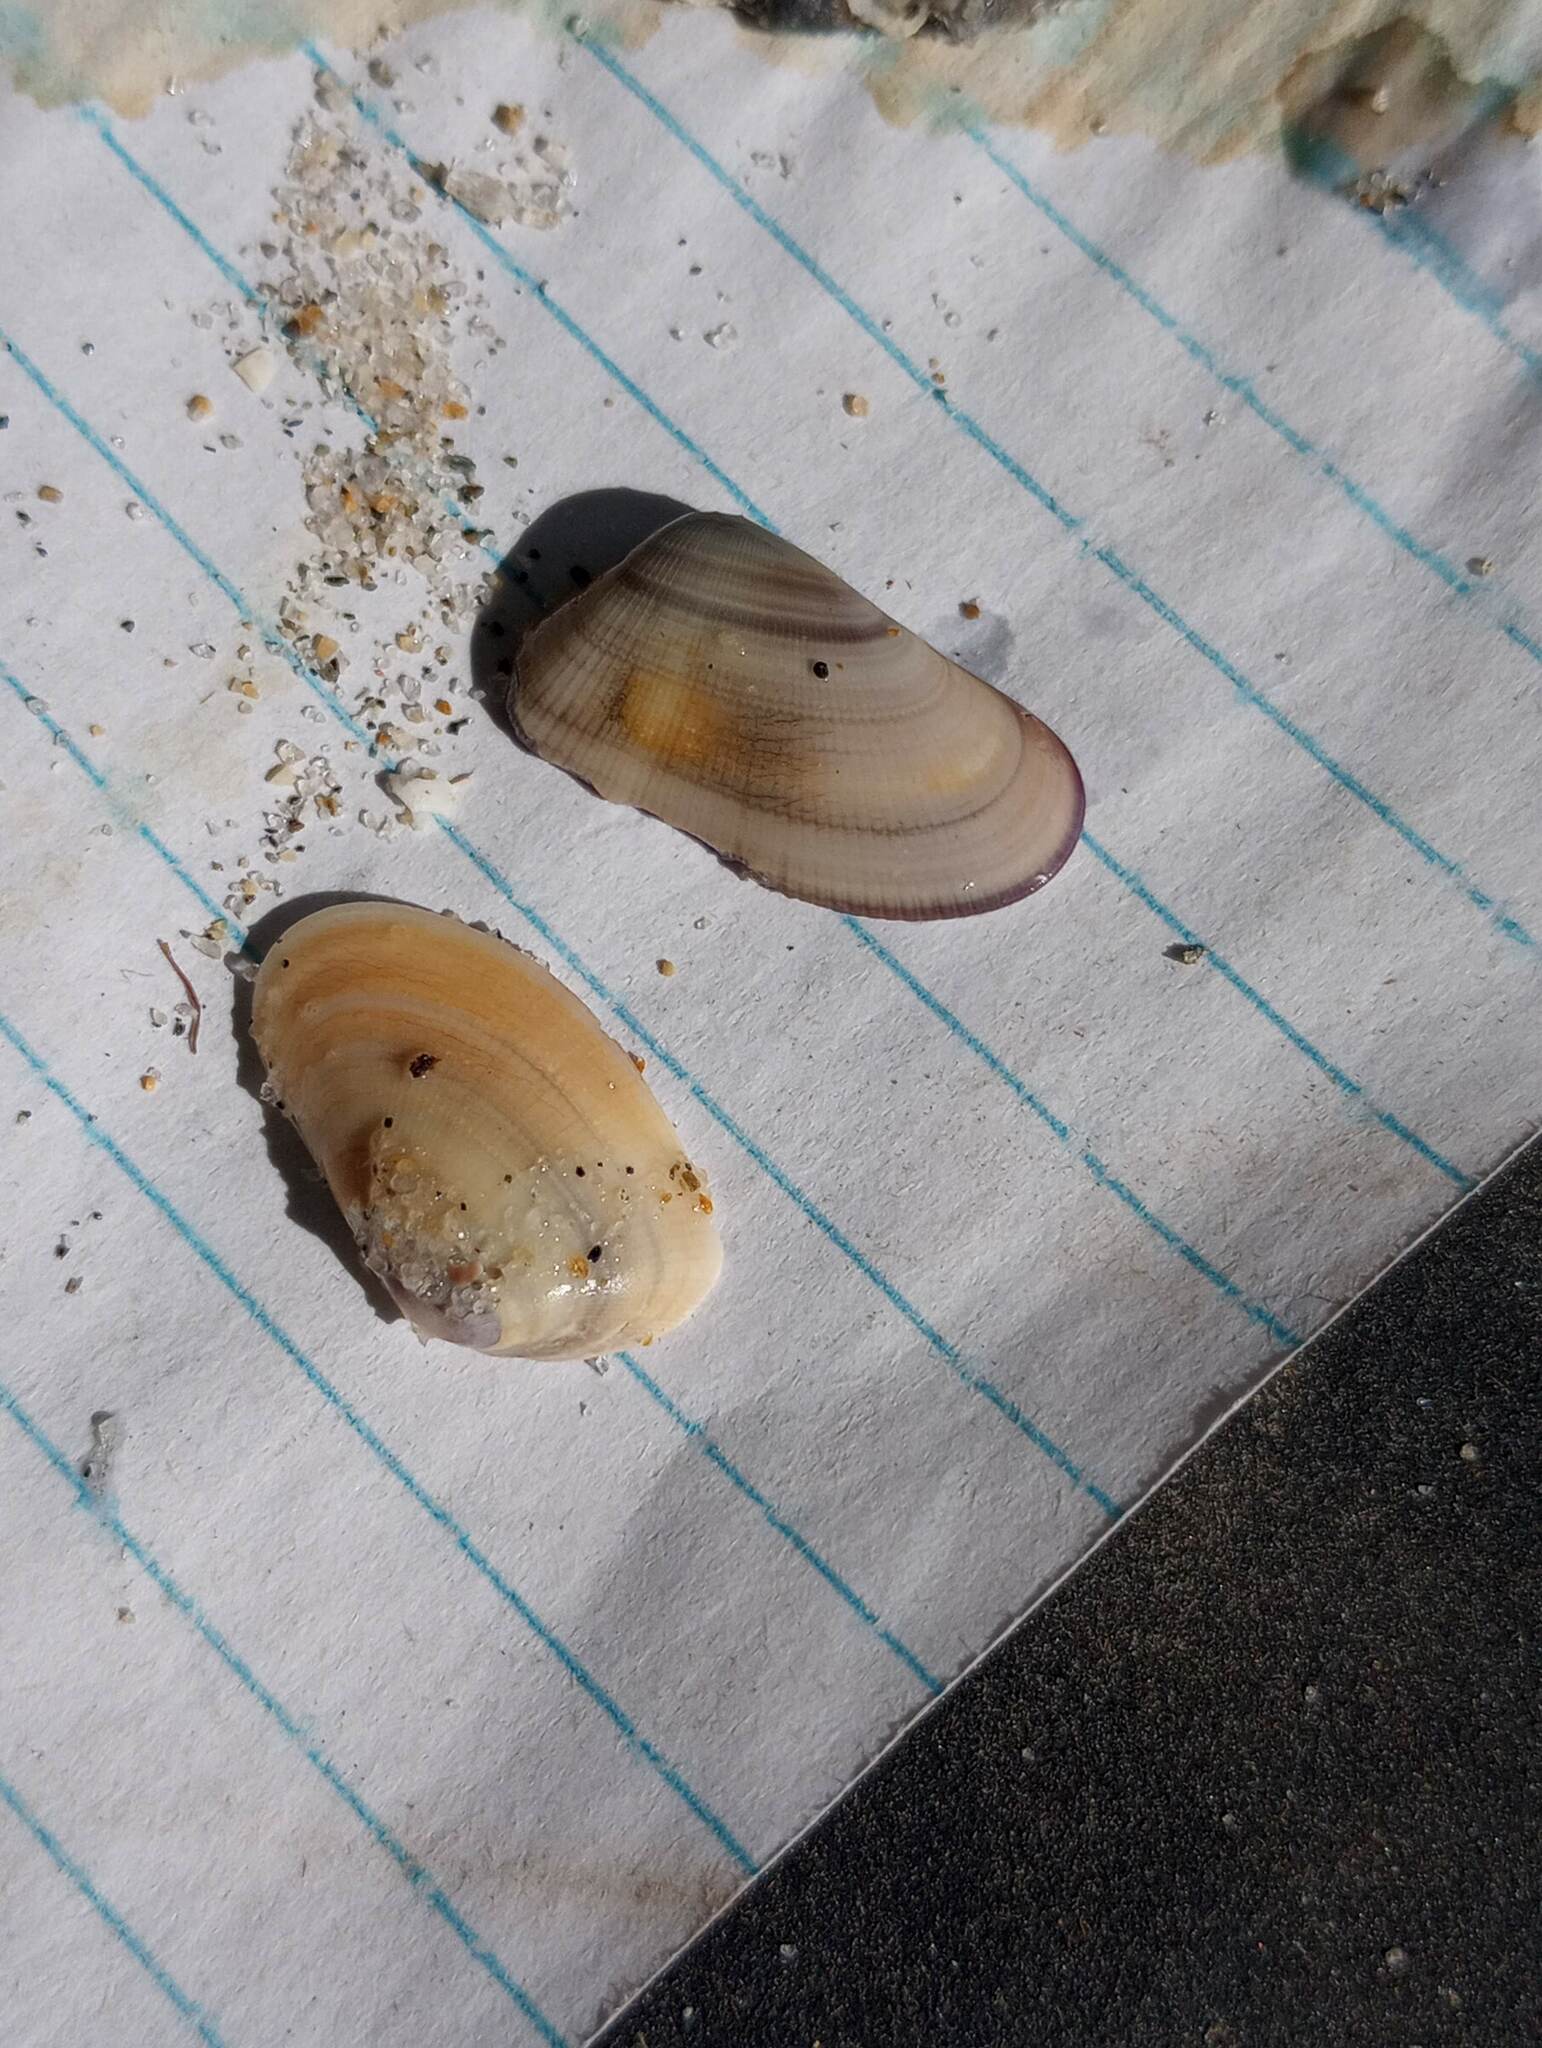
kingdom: Animalia
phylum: Mollusca
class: Bivalvia
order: Cardiida
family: Donacidae
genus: Donax
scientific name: Donax gouldii
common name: Gould beanclam
